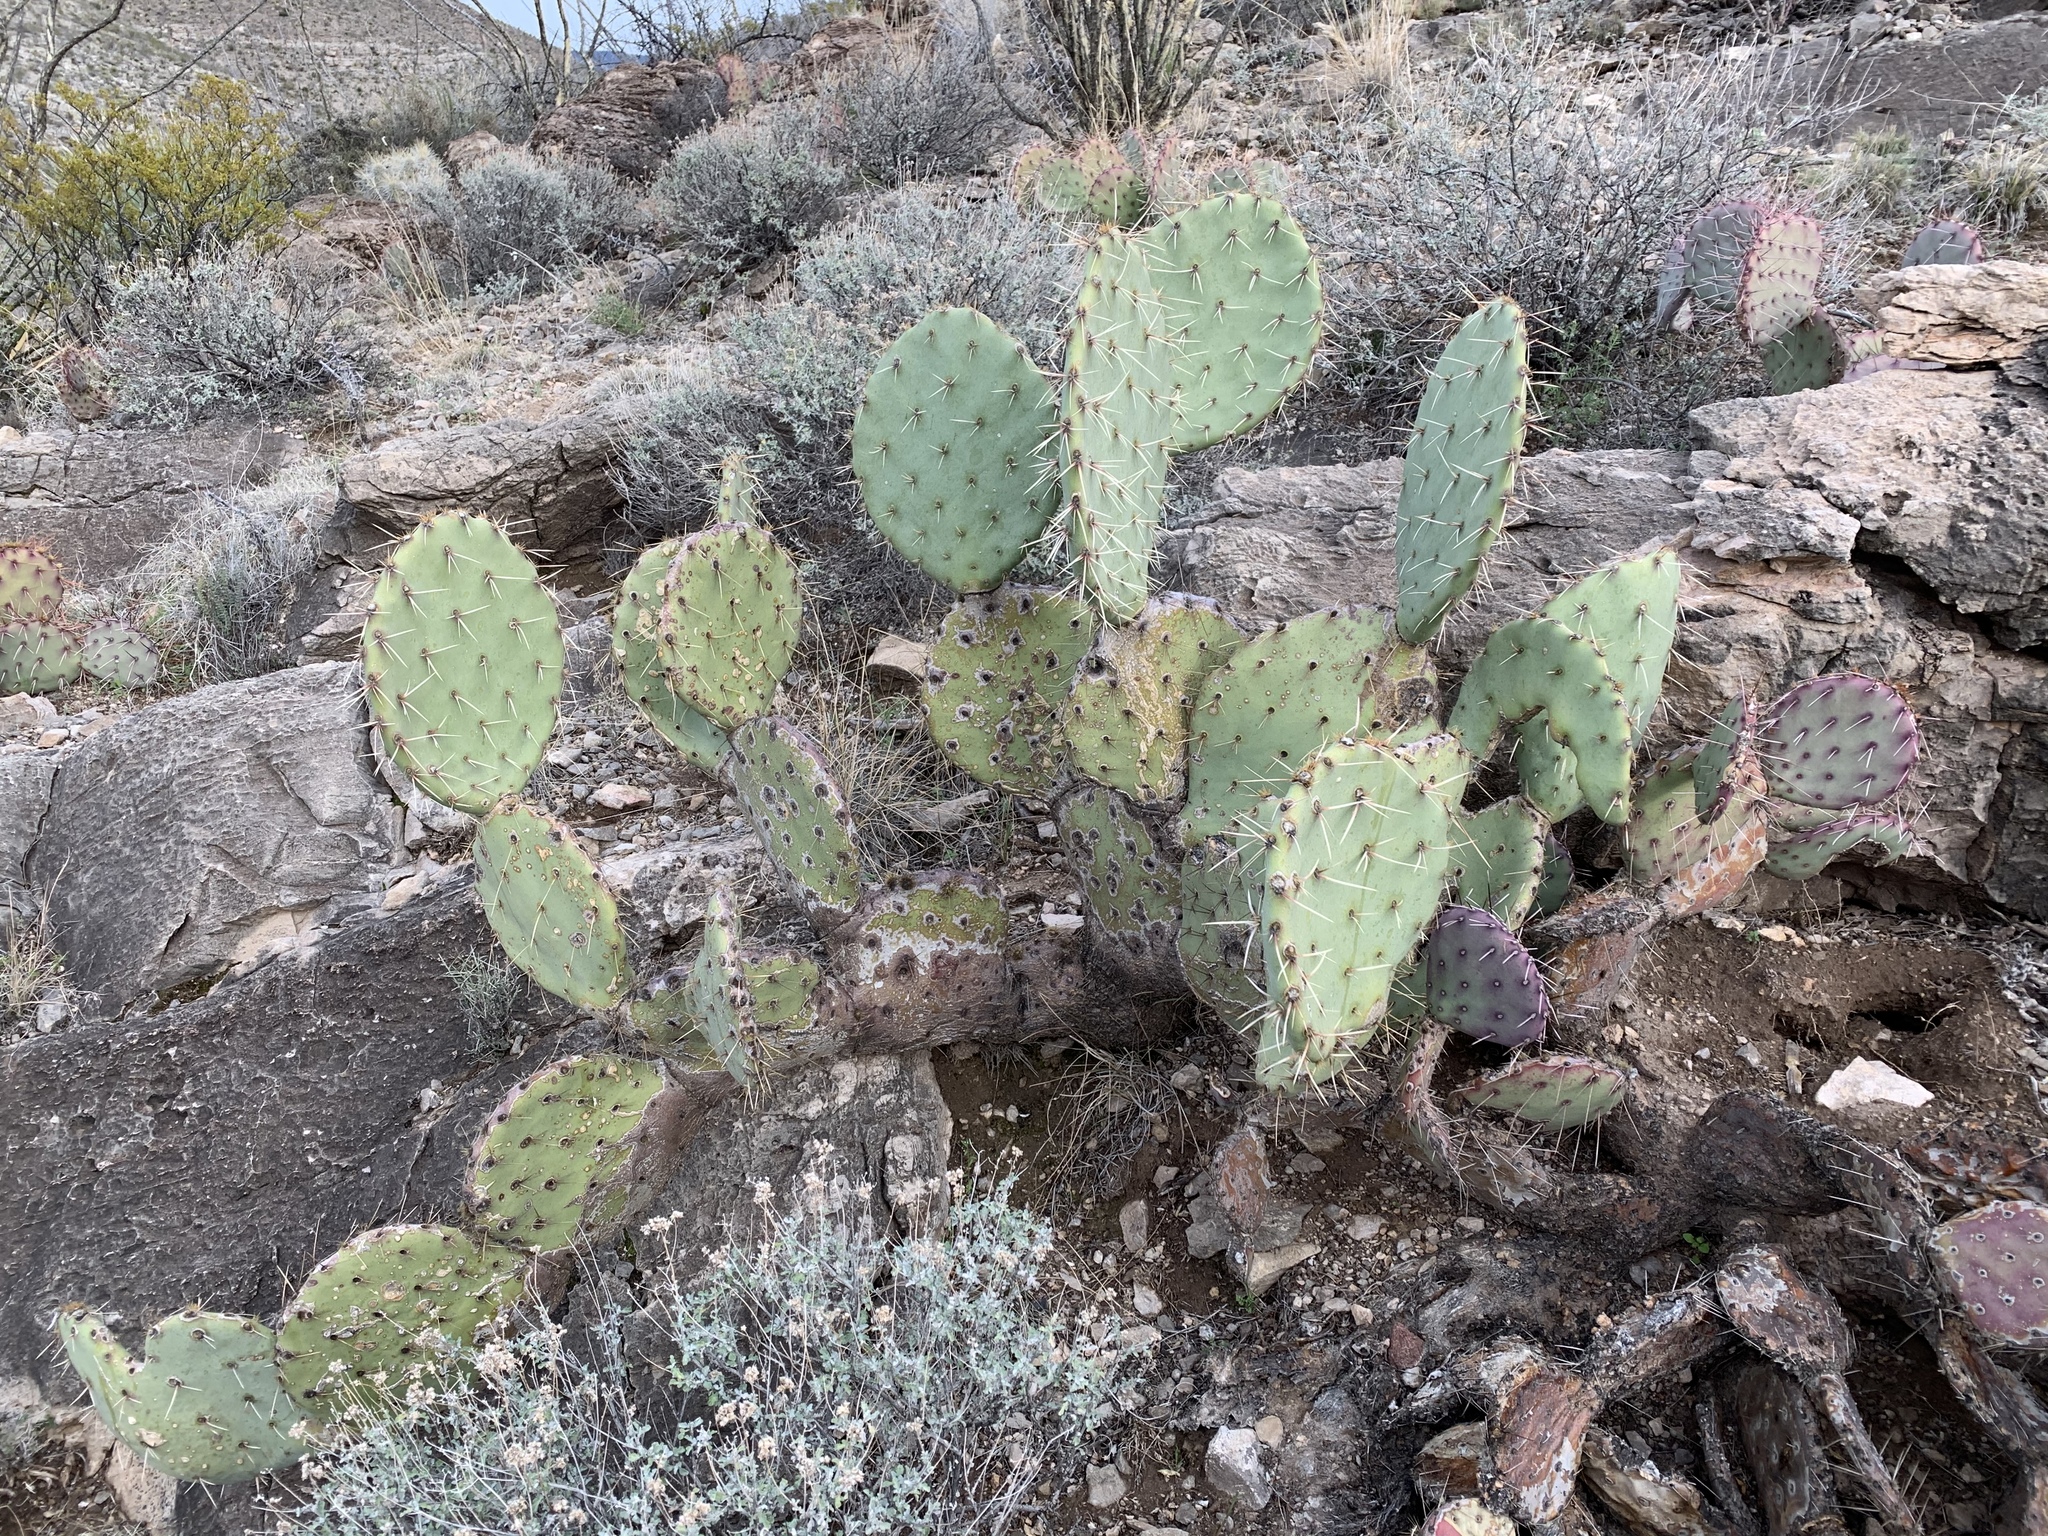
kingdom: Plantae
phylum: Tracheophyta
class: Magnoliopsida
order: Caryophyllales
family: Cactaceae
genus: Opuntia
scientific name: Opuntia engelmannii
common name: Cactus-apple
